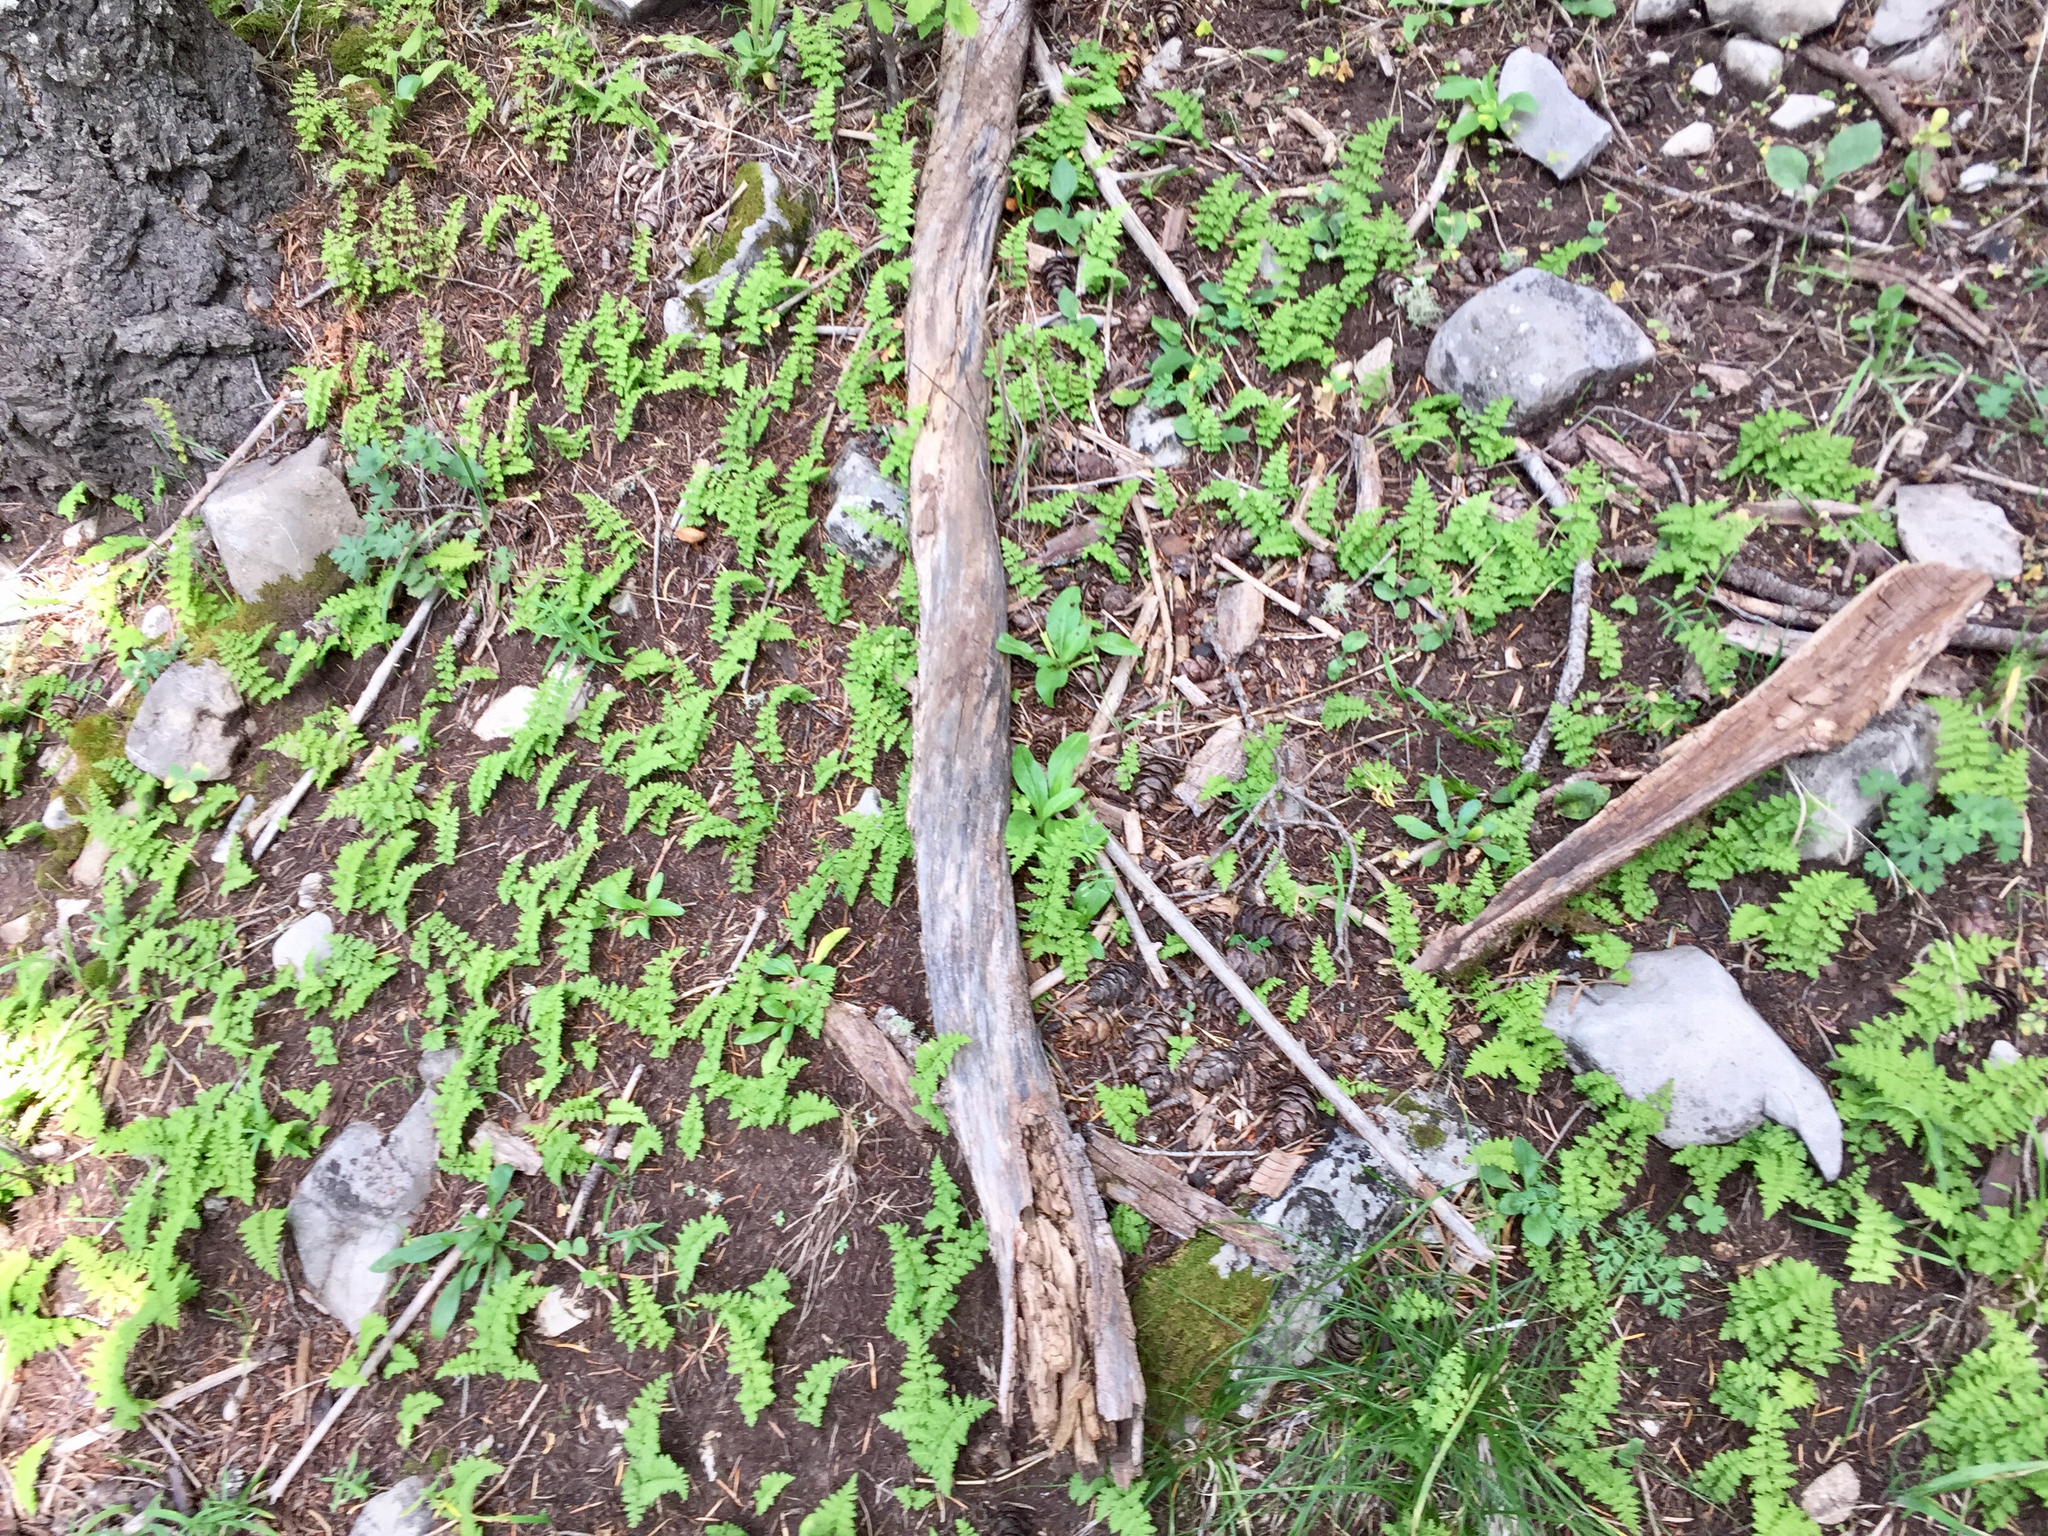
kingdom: Plantae
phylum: Tracheophyta
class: Polypodiopsida
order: Polypodiales
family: Cystopteridaceae
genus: Cystopteris
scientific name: Cystopteris reevesiana
